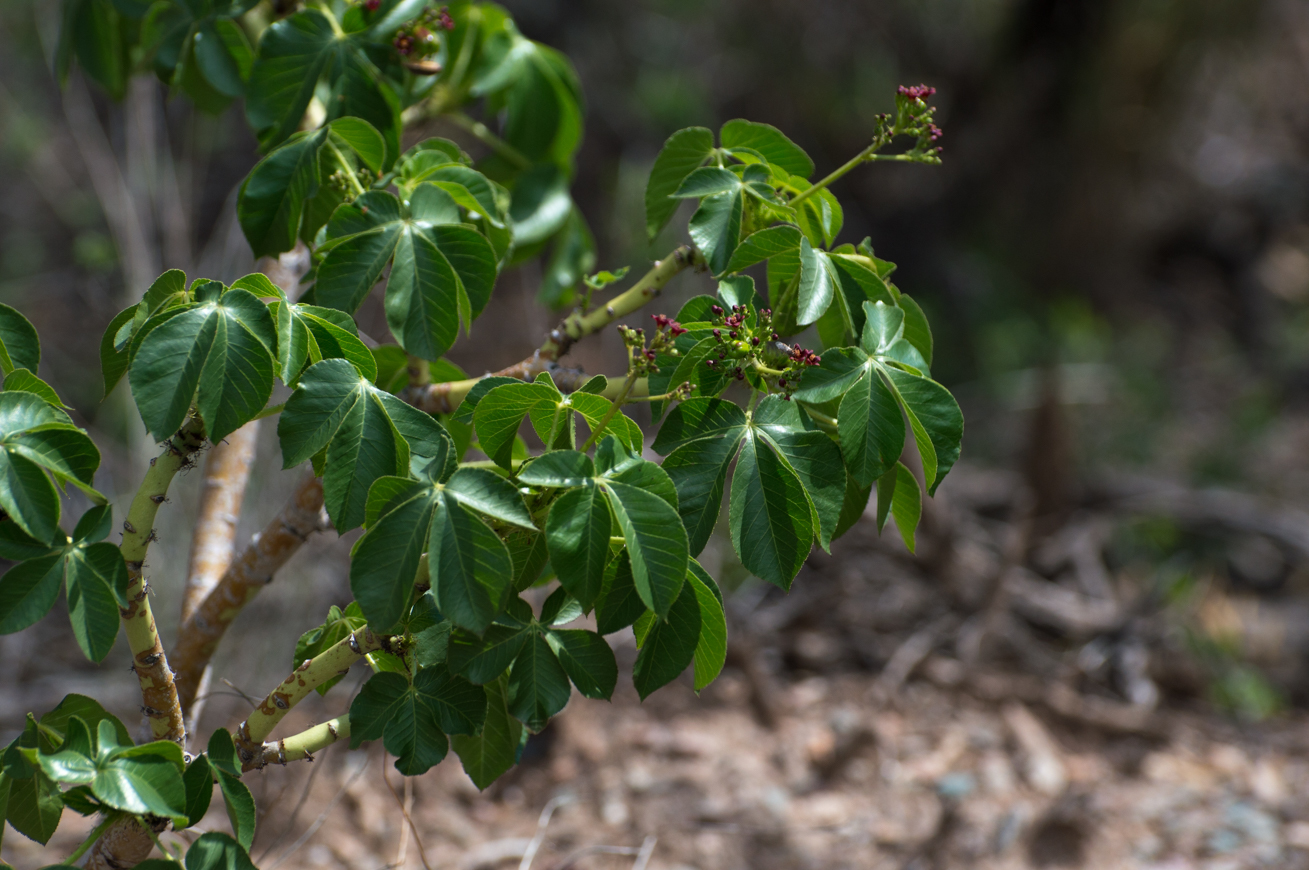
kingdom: Plantae
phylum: Tracheophyta
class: Magnoliopsida
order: Malpighiales
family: Euphorbiaceae
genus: Jatropha
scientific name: Jatropha excisa
